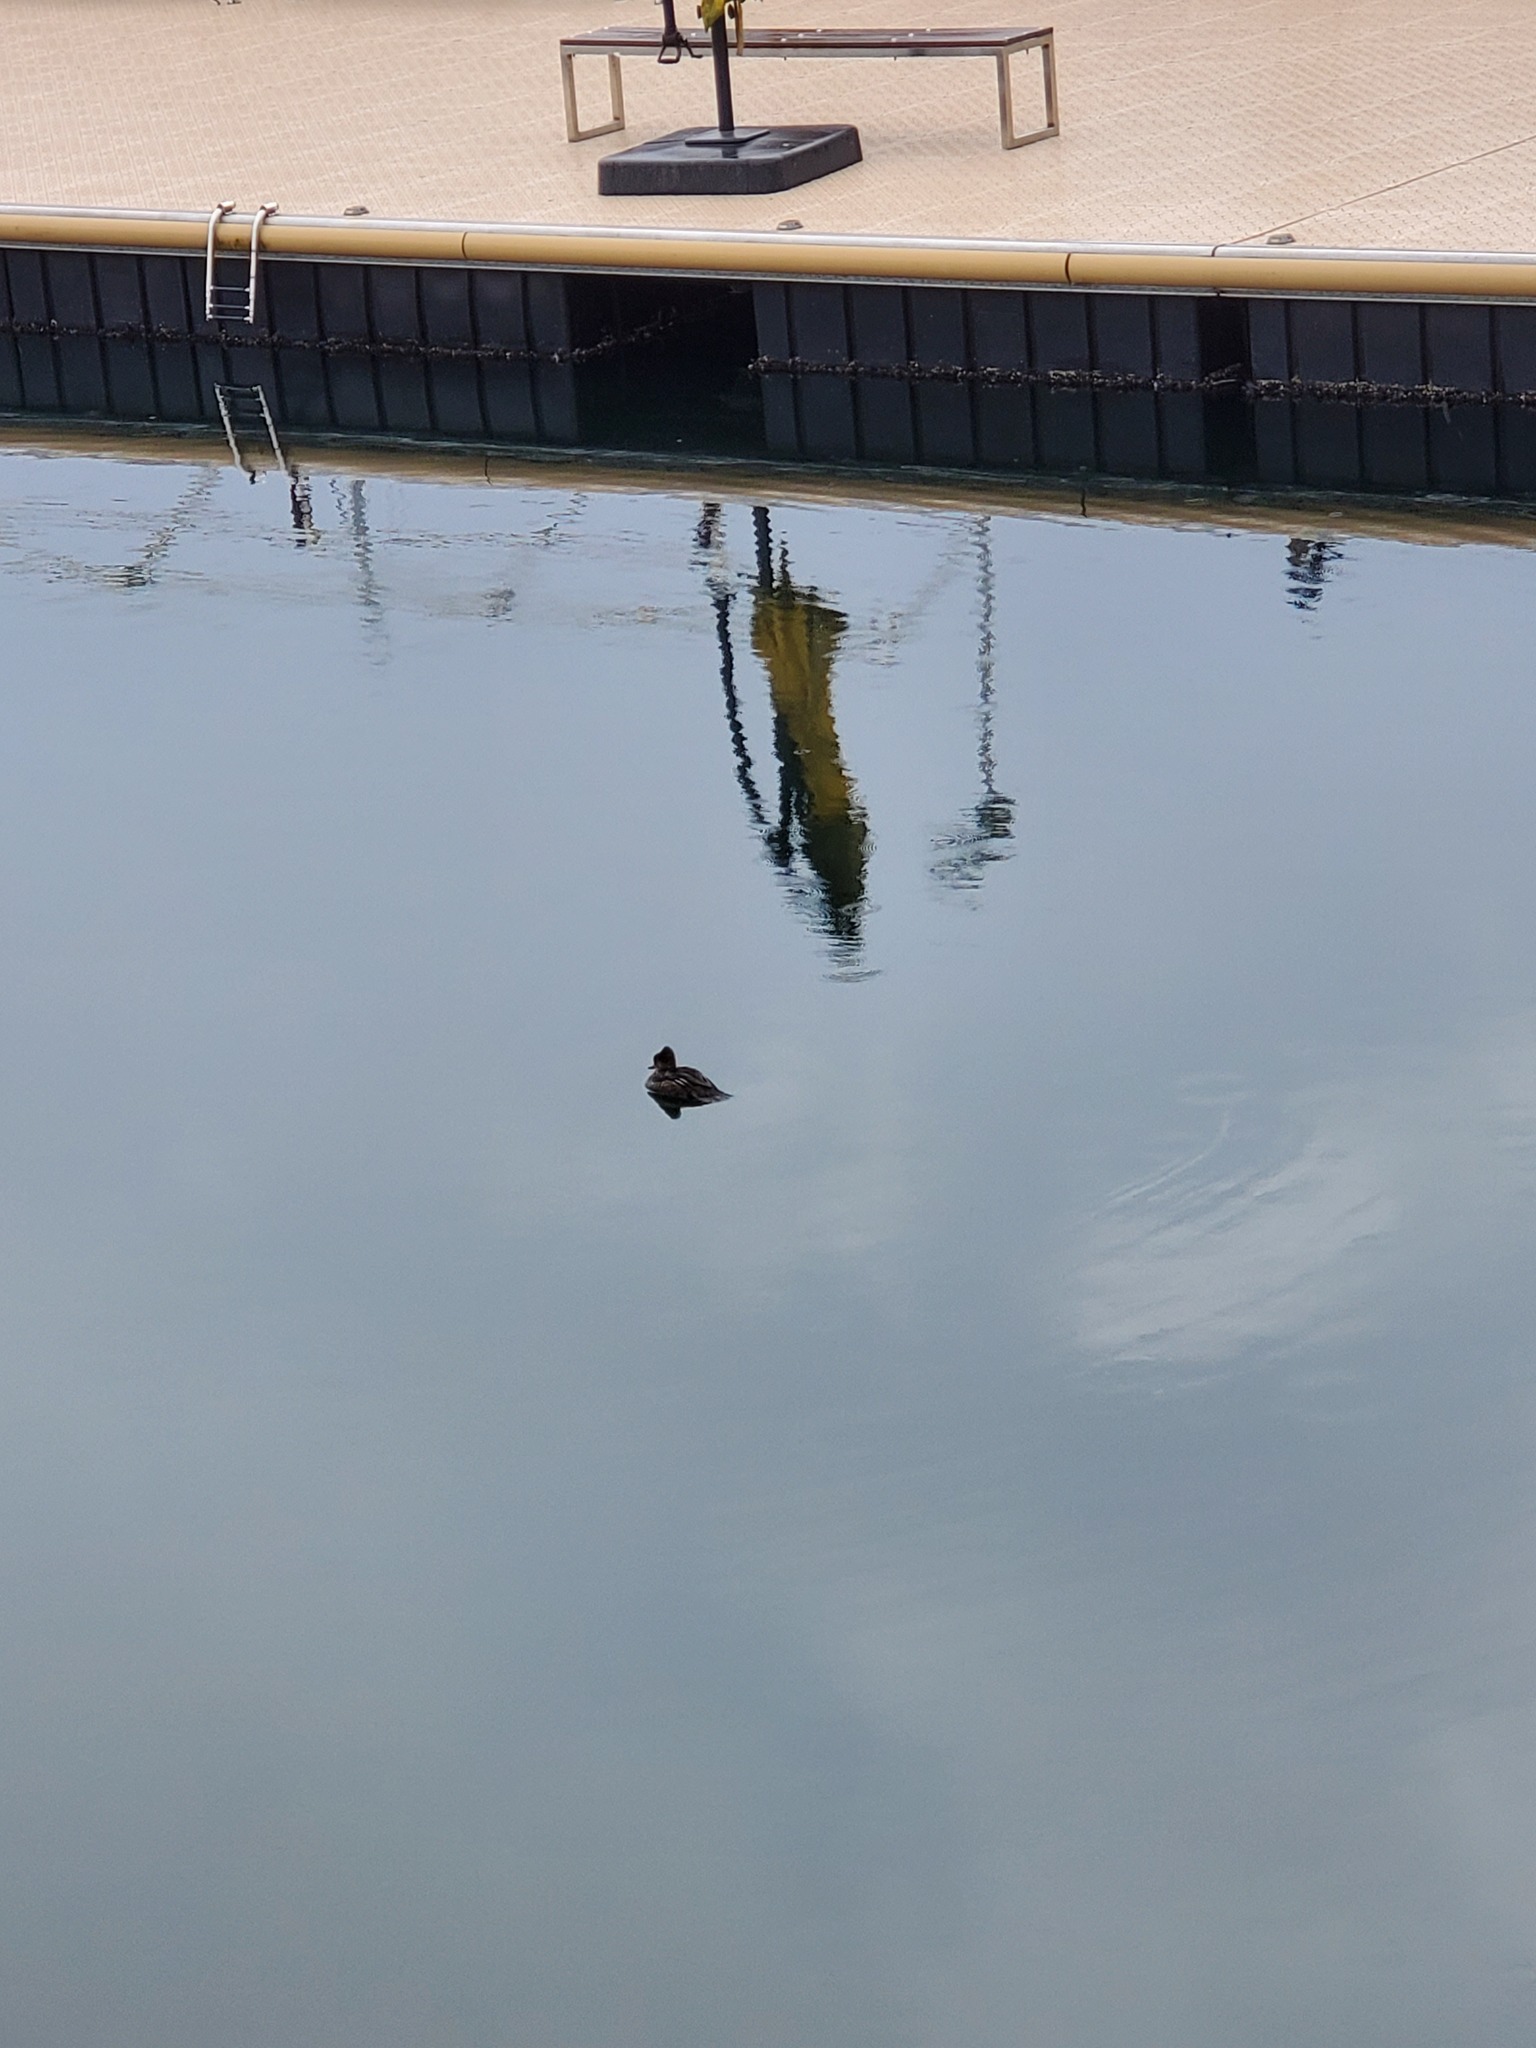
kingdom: Animalia
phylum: Chordata
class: Aves
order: Anseriformes
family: Anatidae
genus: Lophodytes
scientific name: Lophodytes cucullatus
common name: Hooded merganser
